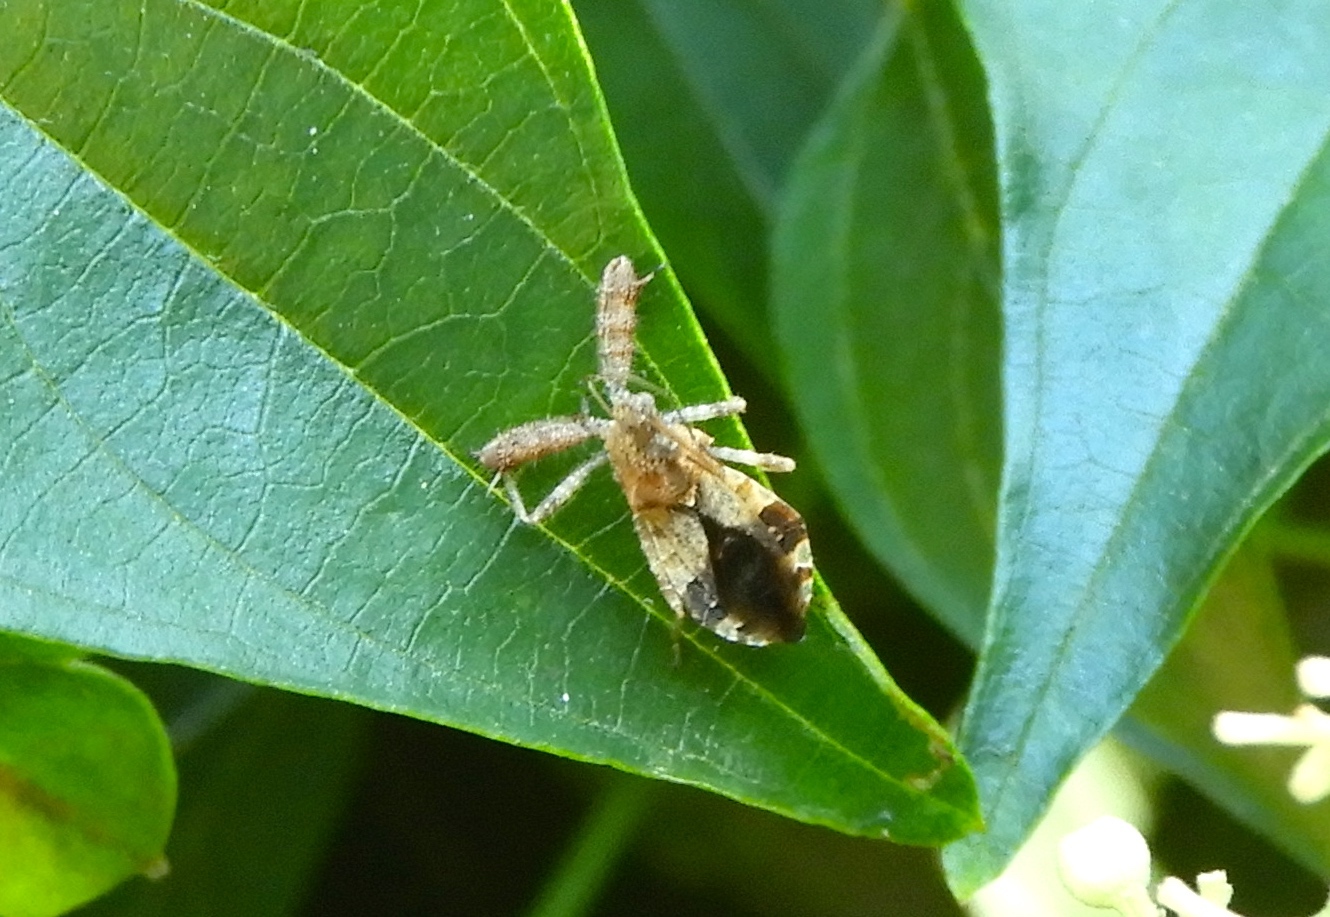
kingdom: Animalia
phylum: Arthropoda
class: Insecta
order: Hemiptera
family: Reduviidae
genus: Sinea
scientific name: Sinea
